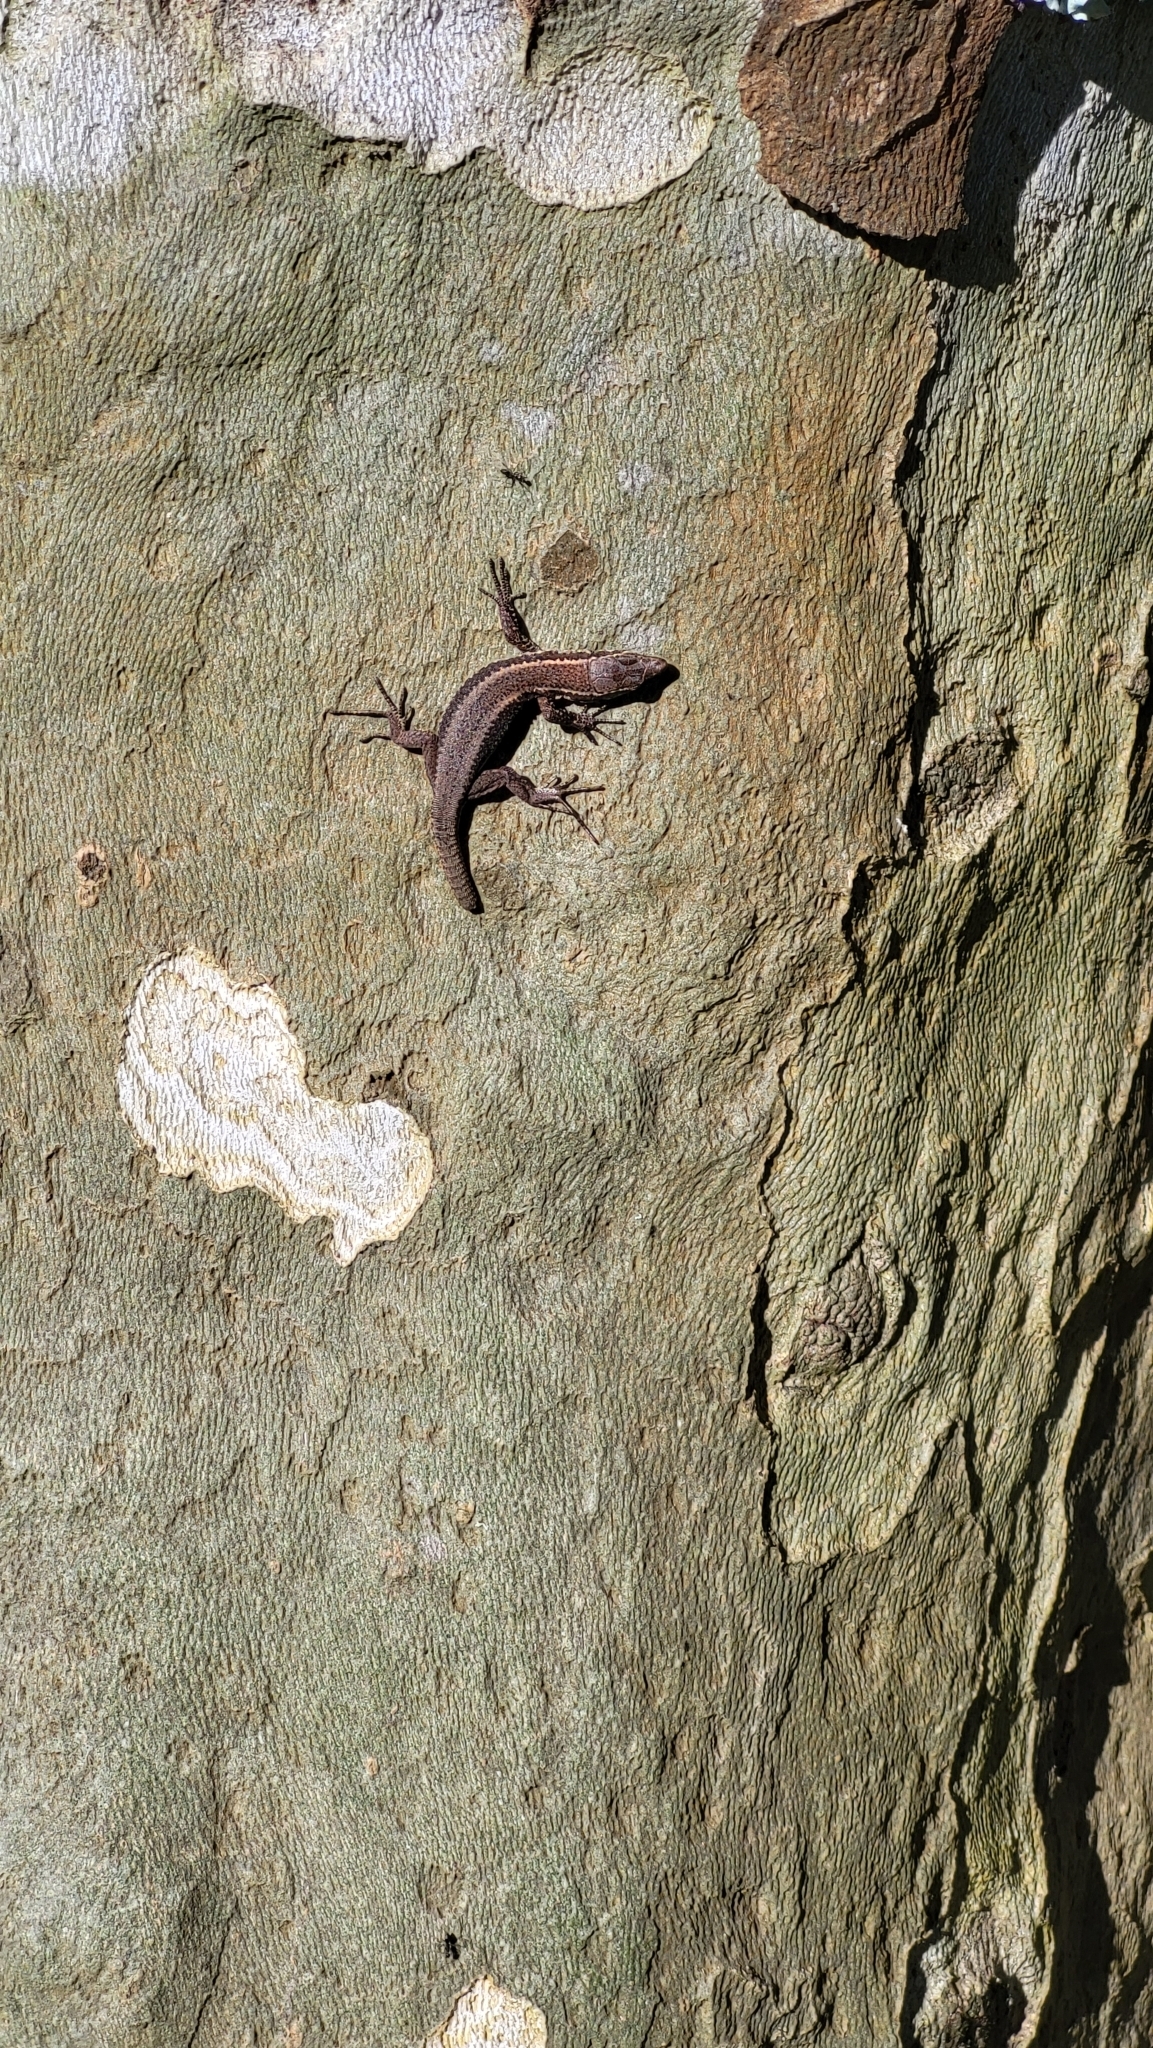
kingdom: Animalia
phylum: Chordata
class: Squamata
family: Lacertidae
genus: Teira
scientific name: Teira dugesii
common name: Madeira lizard
